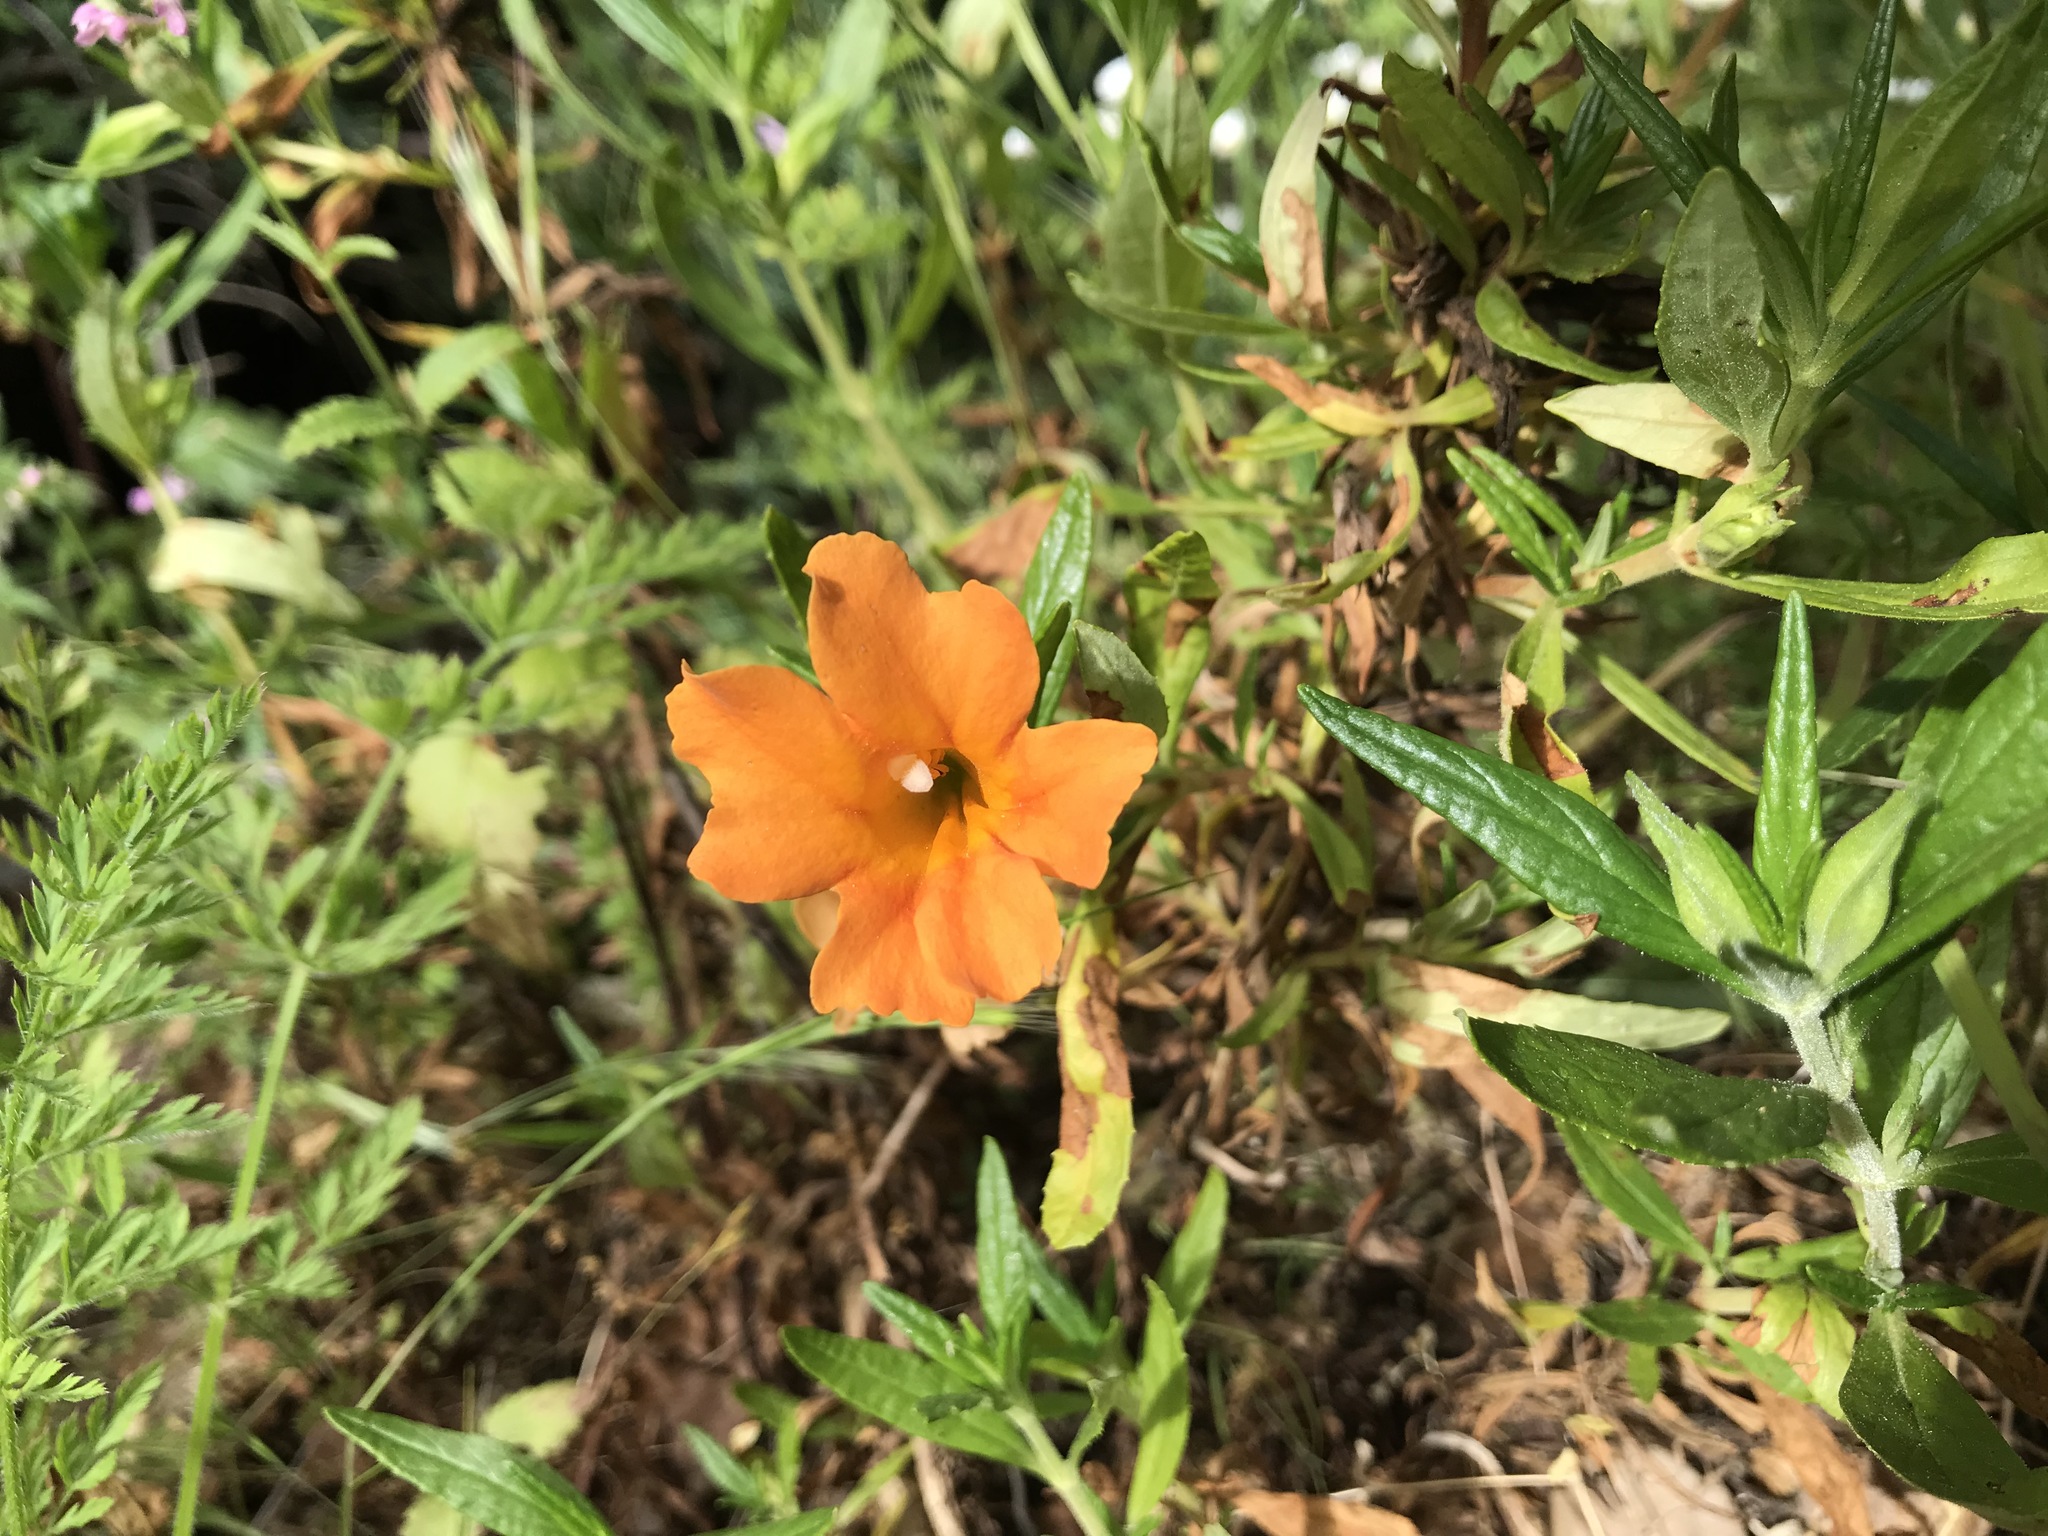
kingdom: Plantae
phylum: Tracheophyta
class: Magnoliopsida
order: Lamiales
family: Phrymaceae
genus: Diplacus
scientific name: Diplacus aurantiacus
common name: Bush monkey-flower
